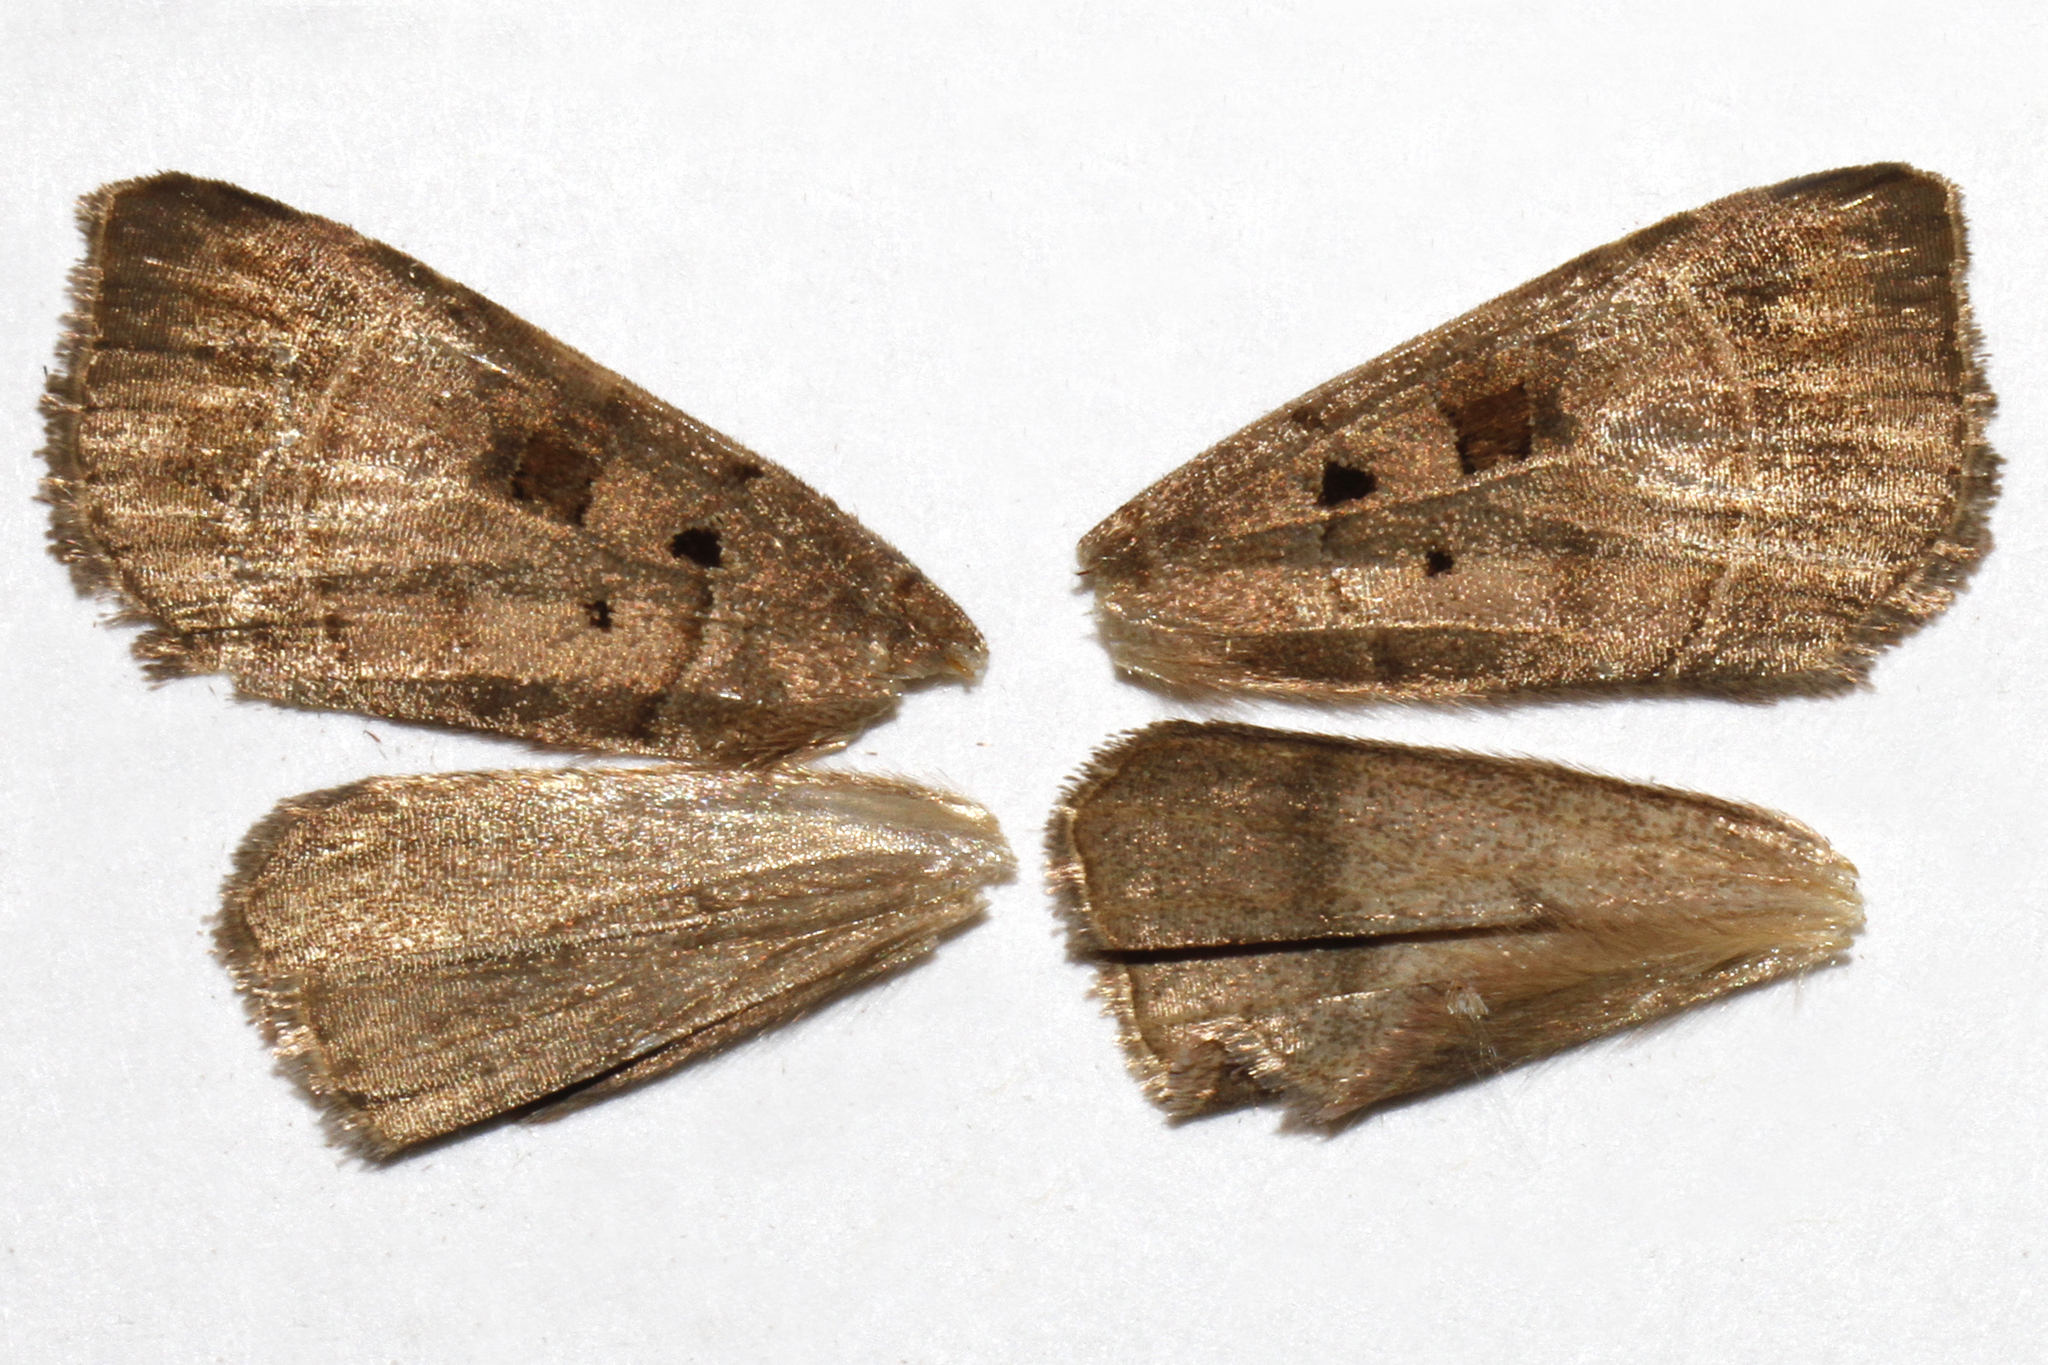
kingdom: Animalia
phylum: Arthropoda
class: Insecta
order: Lepidoptera
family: Noctuidae
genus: Agnorisma
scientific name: Agnorisma badinodis
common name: Pale-banded dart
